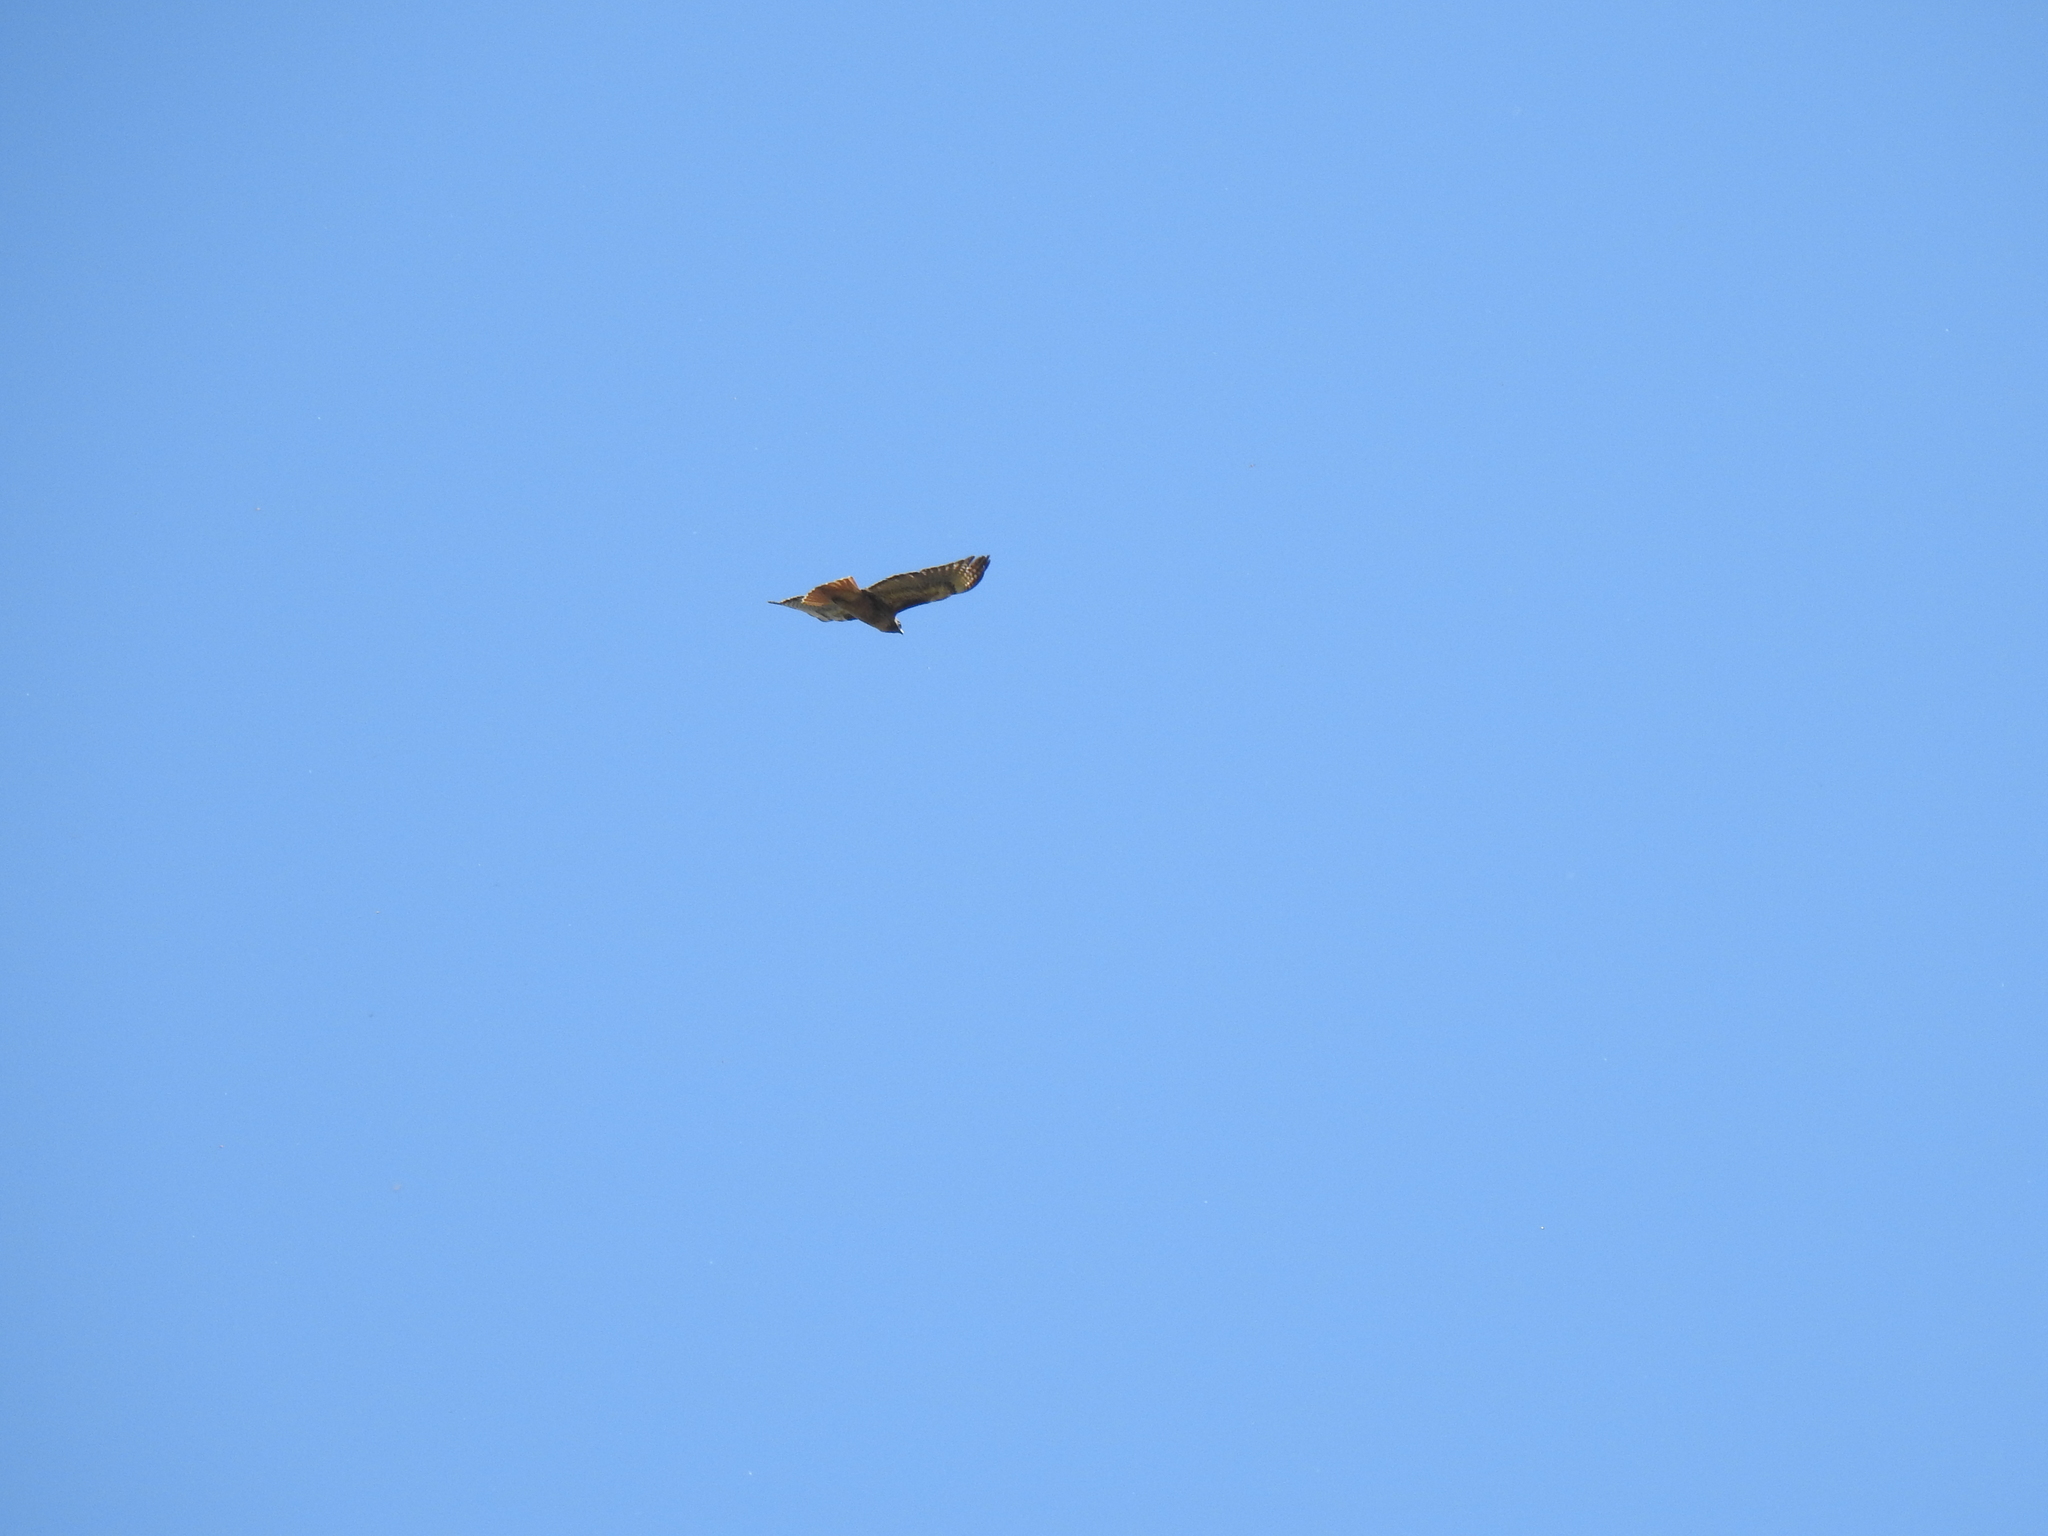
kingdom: Animalia
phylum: Chordata
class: Aves
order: Accipitriformes
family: Accipitridae
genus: Buteo
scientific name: Buteo jamaicensis
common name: Red-tailed hawk
